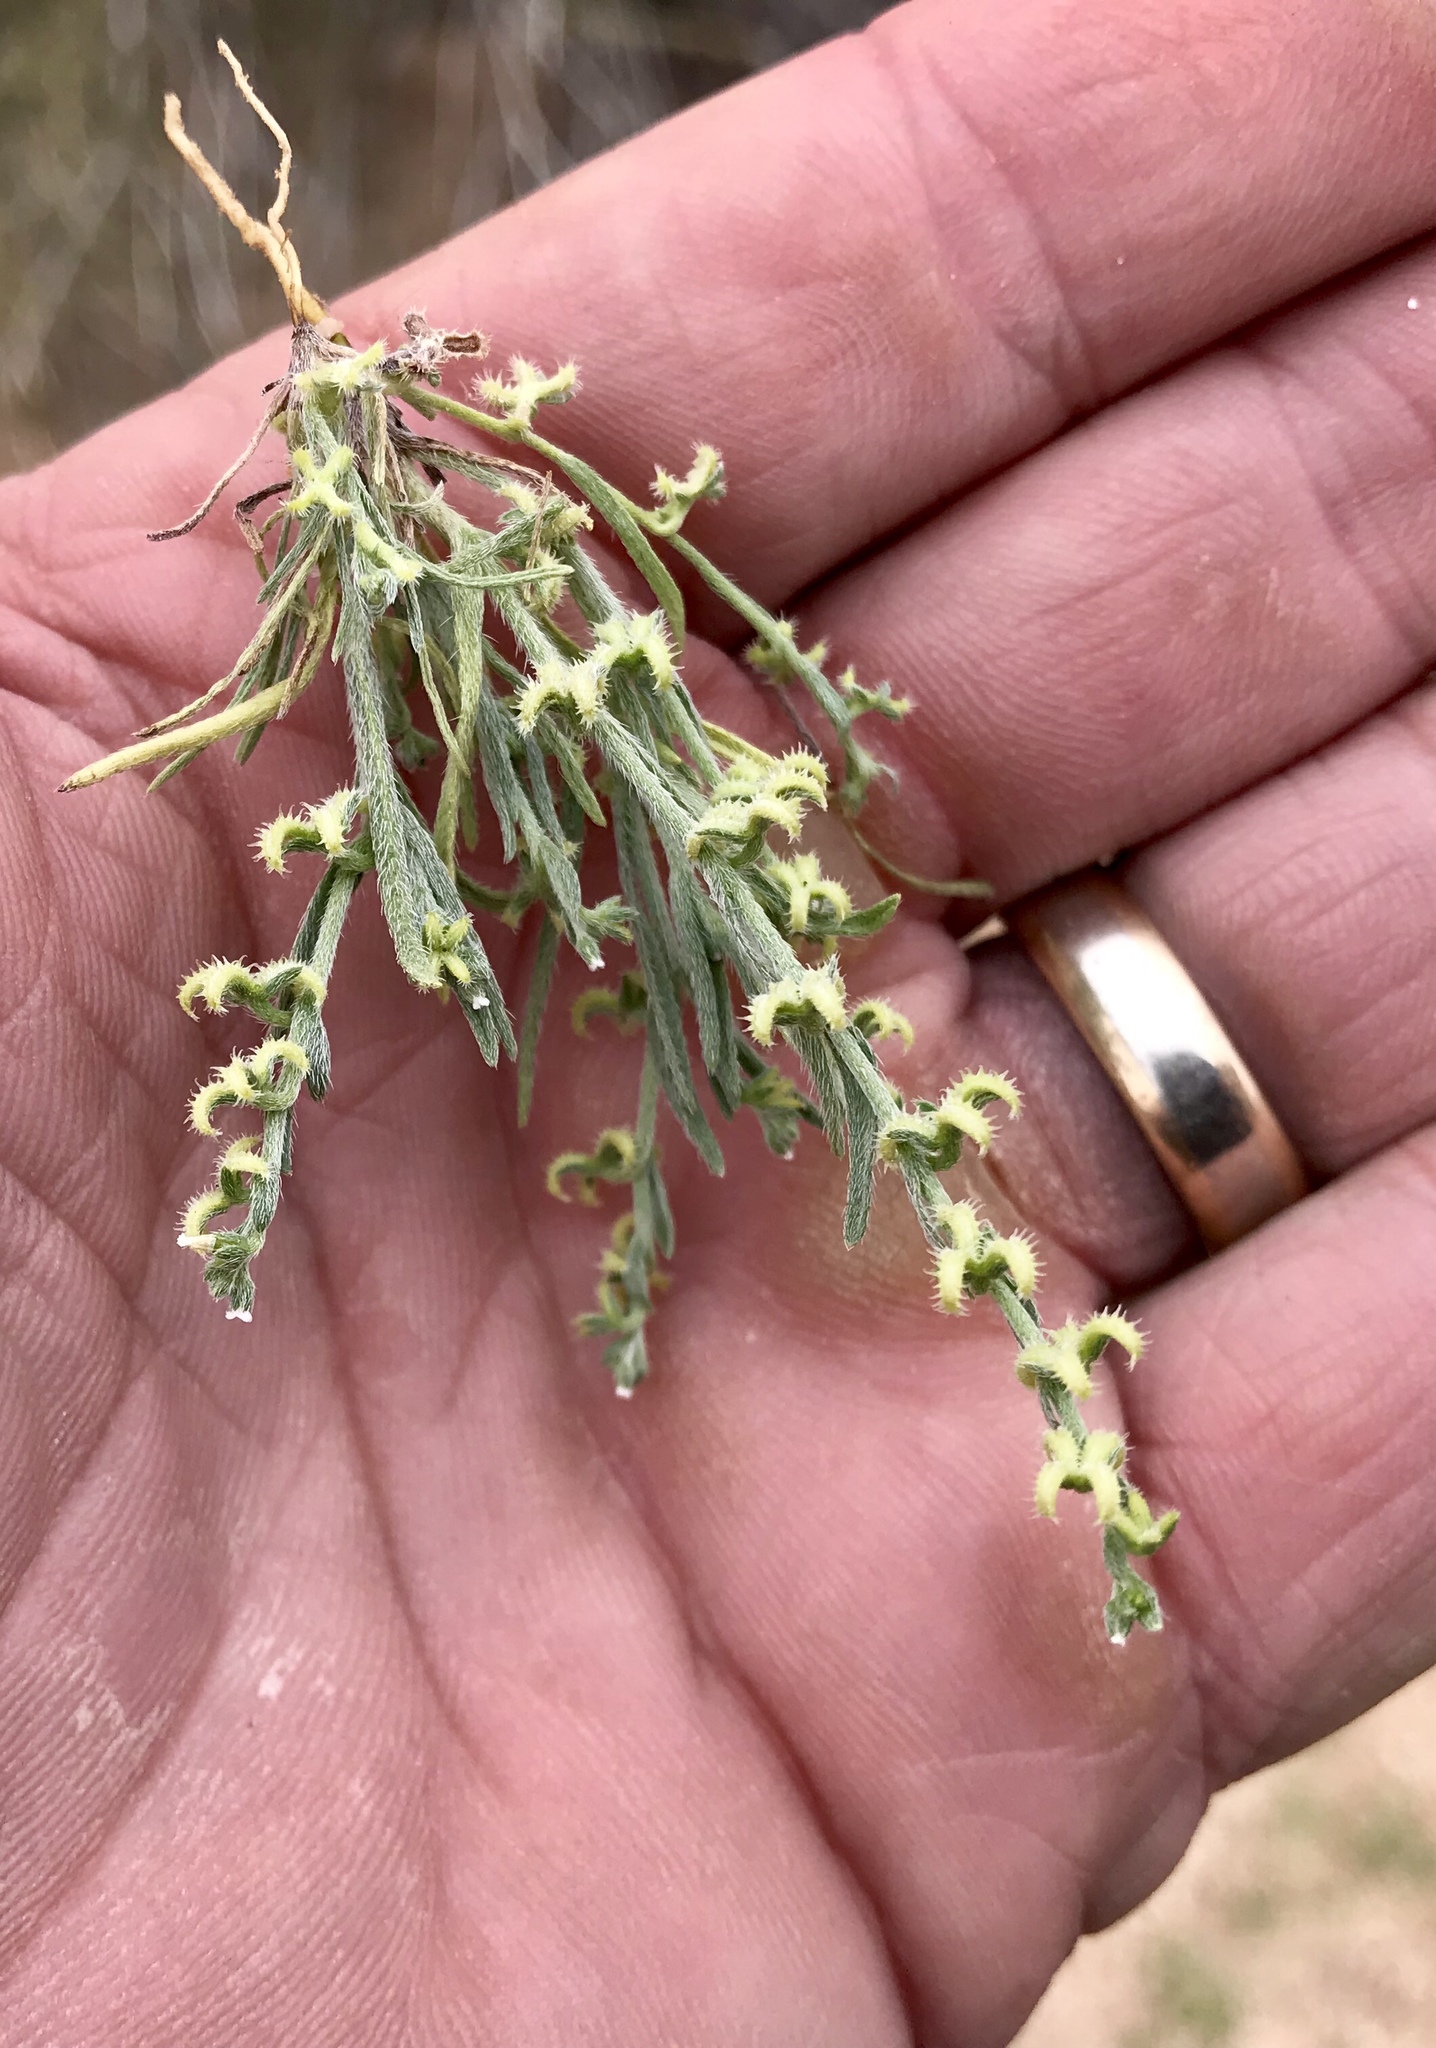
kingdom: Plantae
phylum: Tracheophyta
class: Magnoliopsida
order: Boraginales
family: Boraginaceae
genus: Pectocarya
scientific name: Pectocarya recurvata
